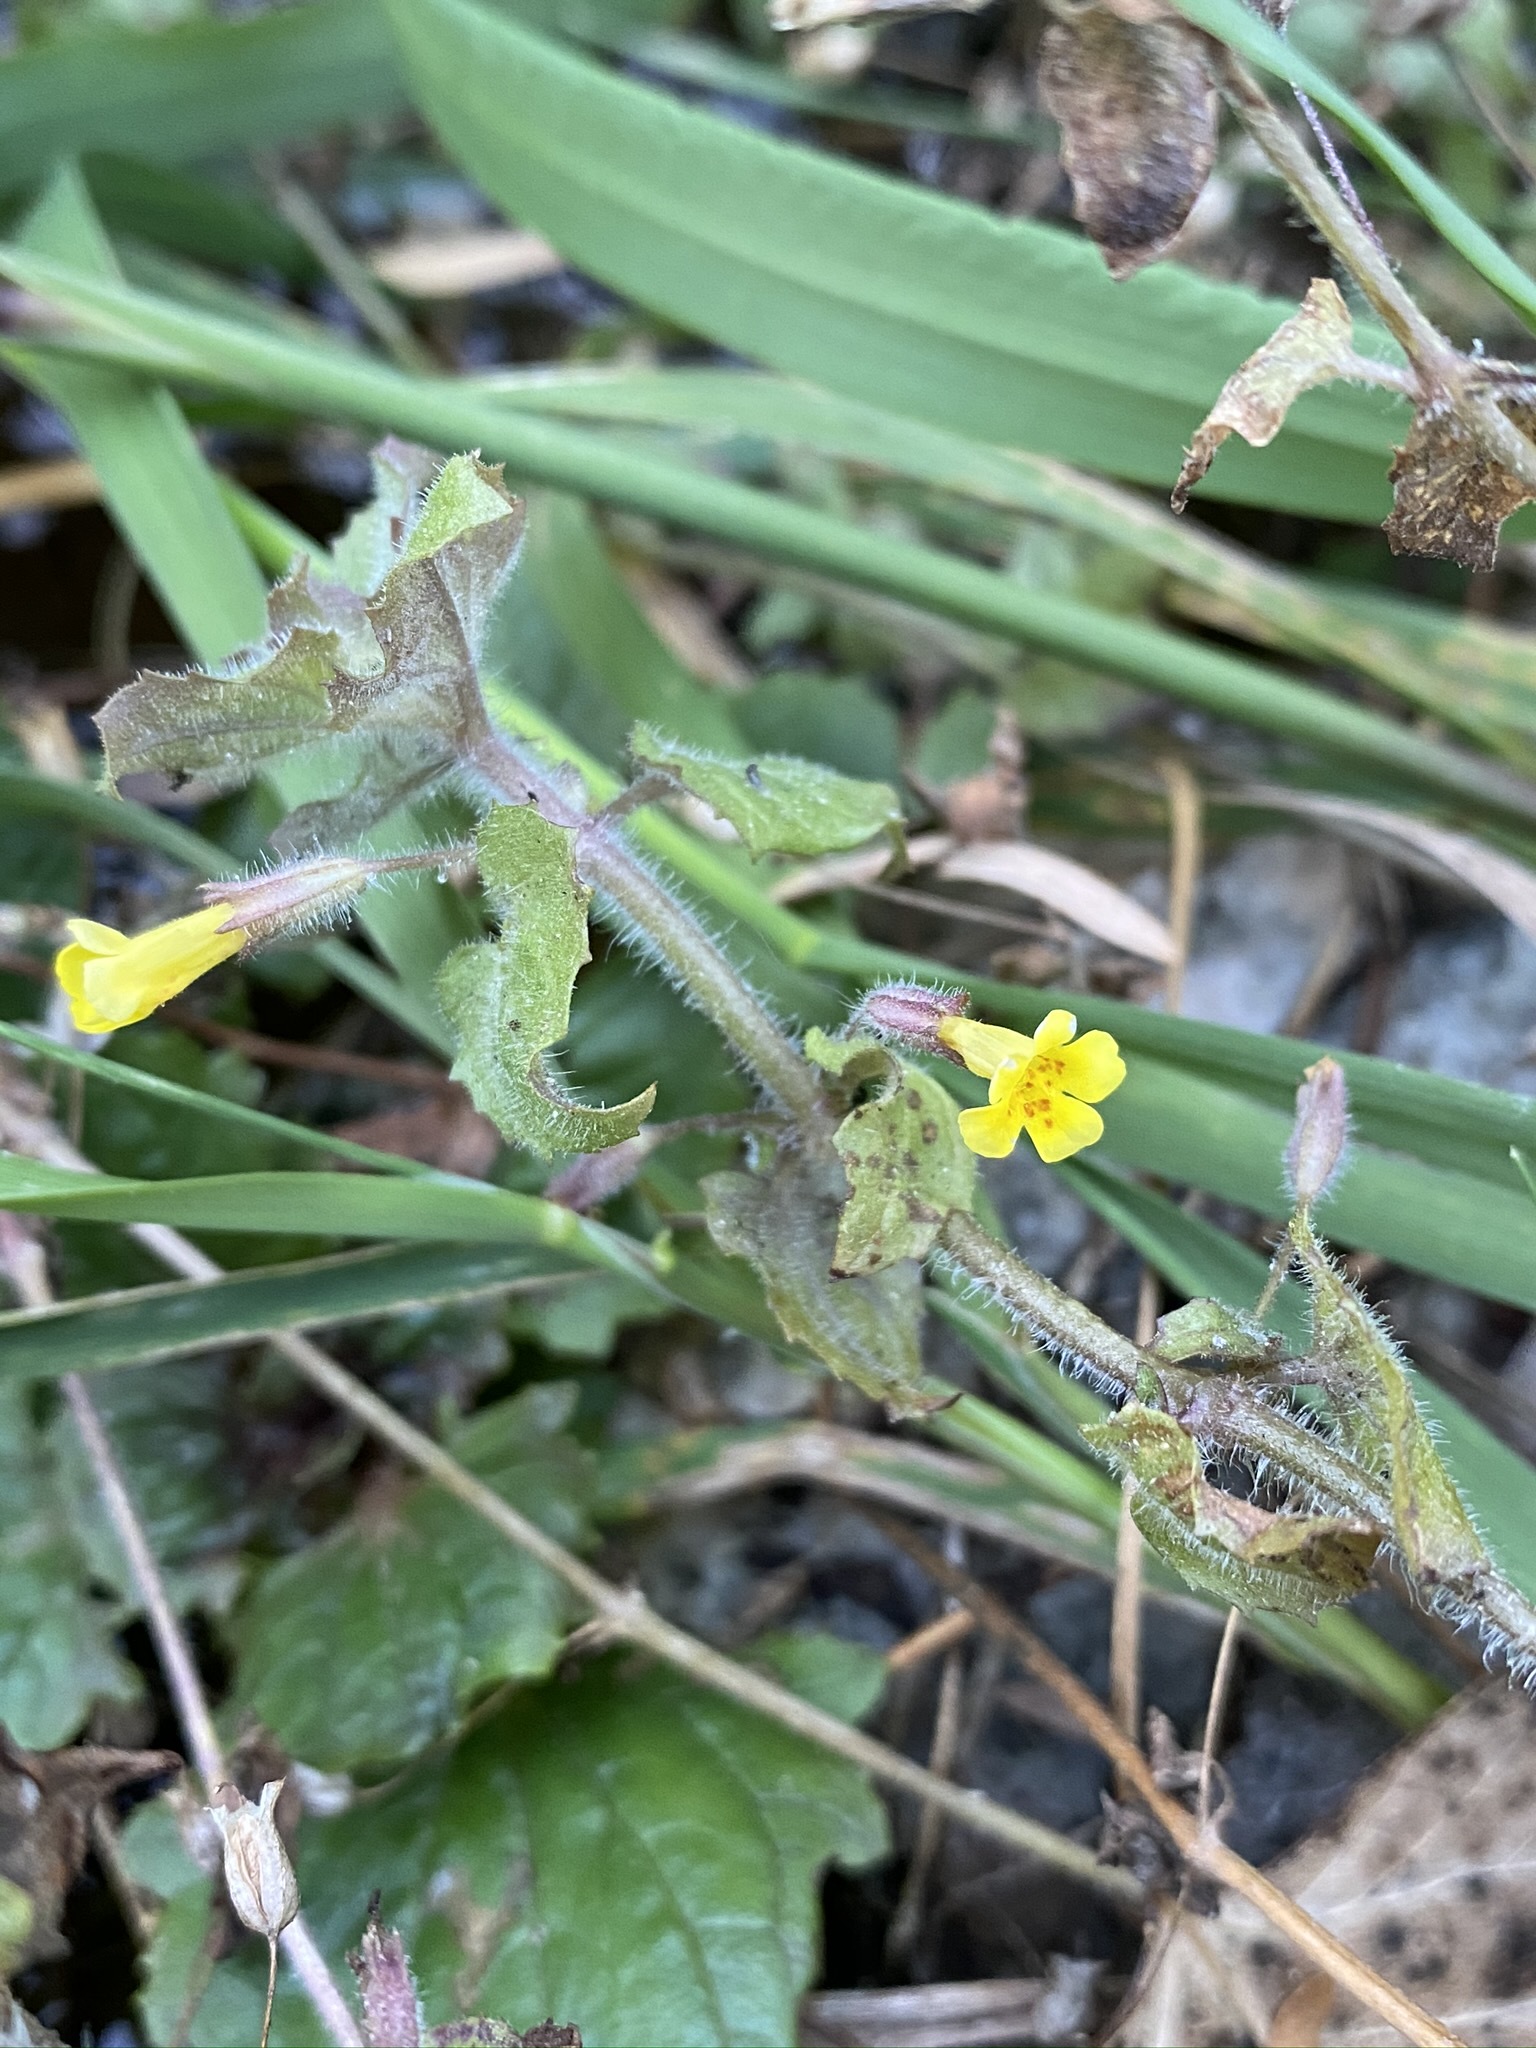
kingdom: Plantae
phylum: Tracheophyta
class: Magnoliopsida
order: Lamiales
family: Phrymaceae
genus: Erythranthe
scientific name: Erythranthe floribunda
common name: Floriferous monkeyflower
